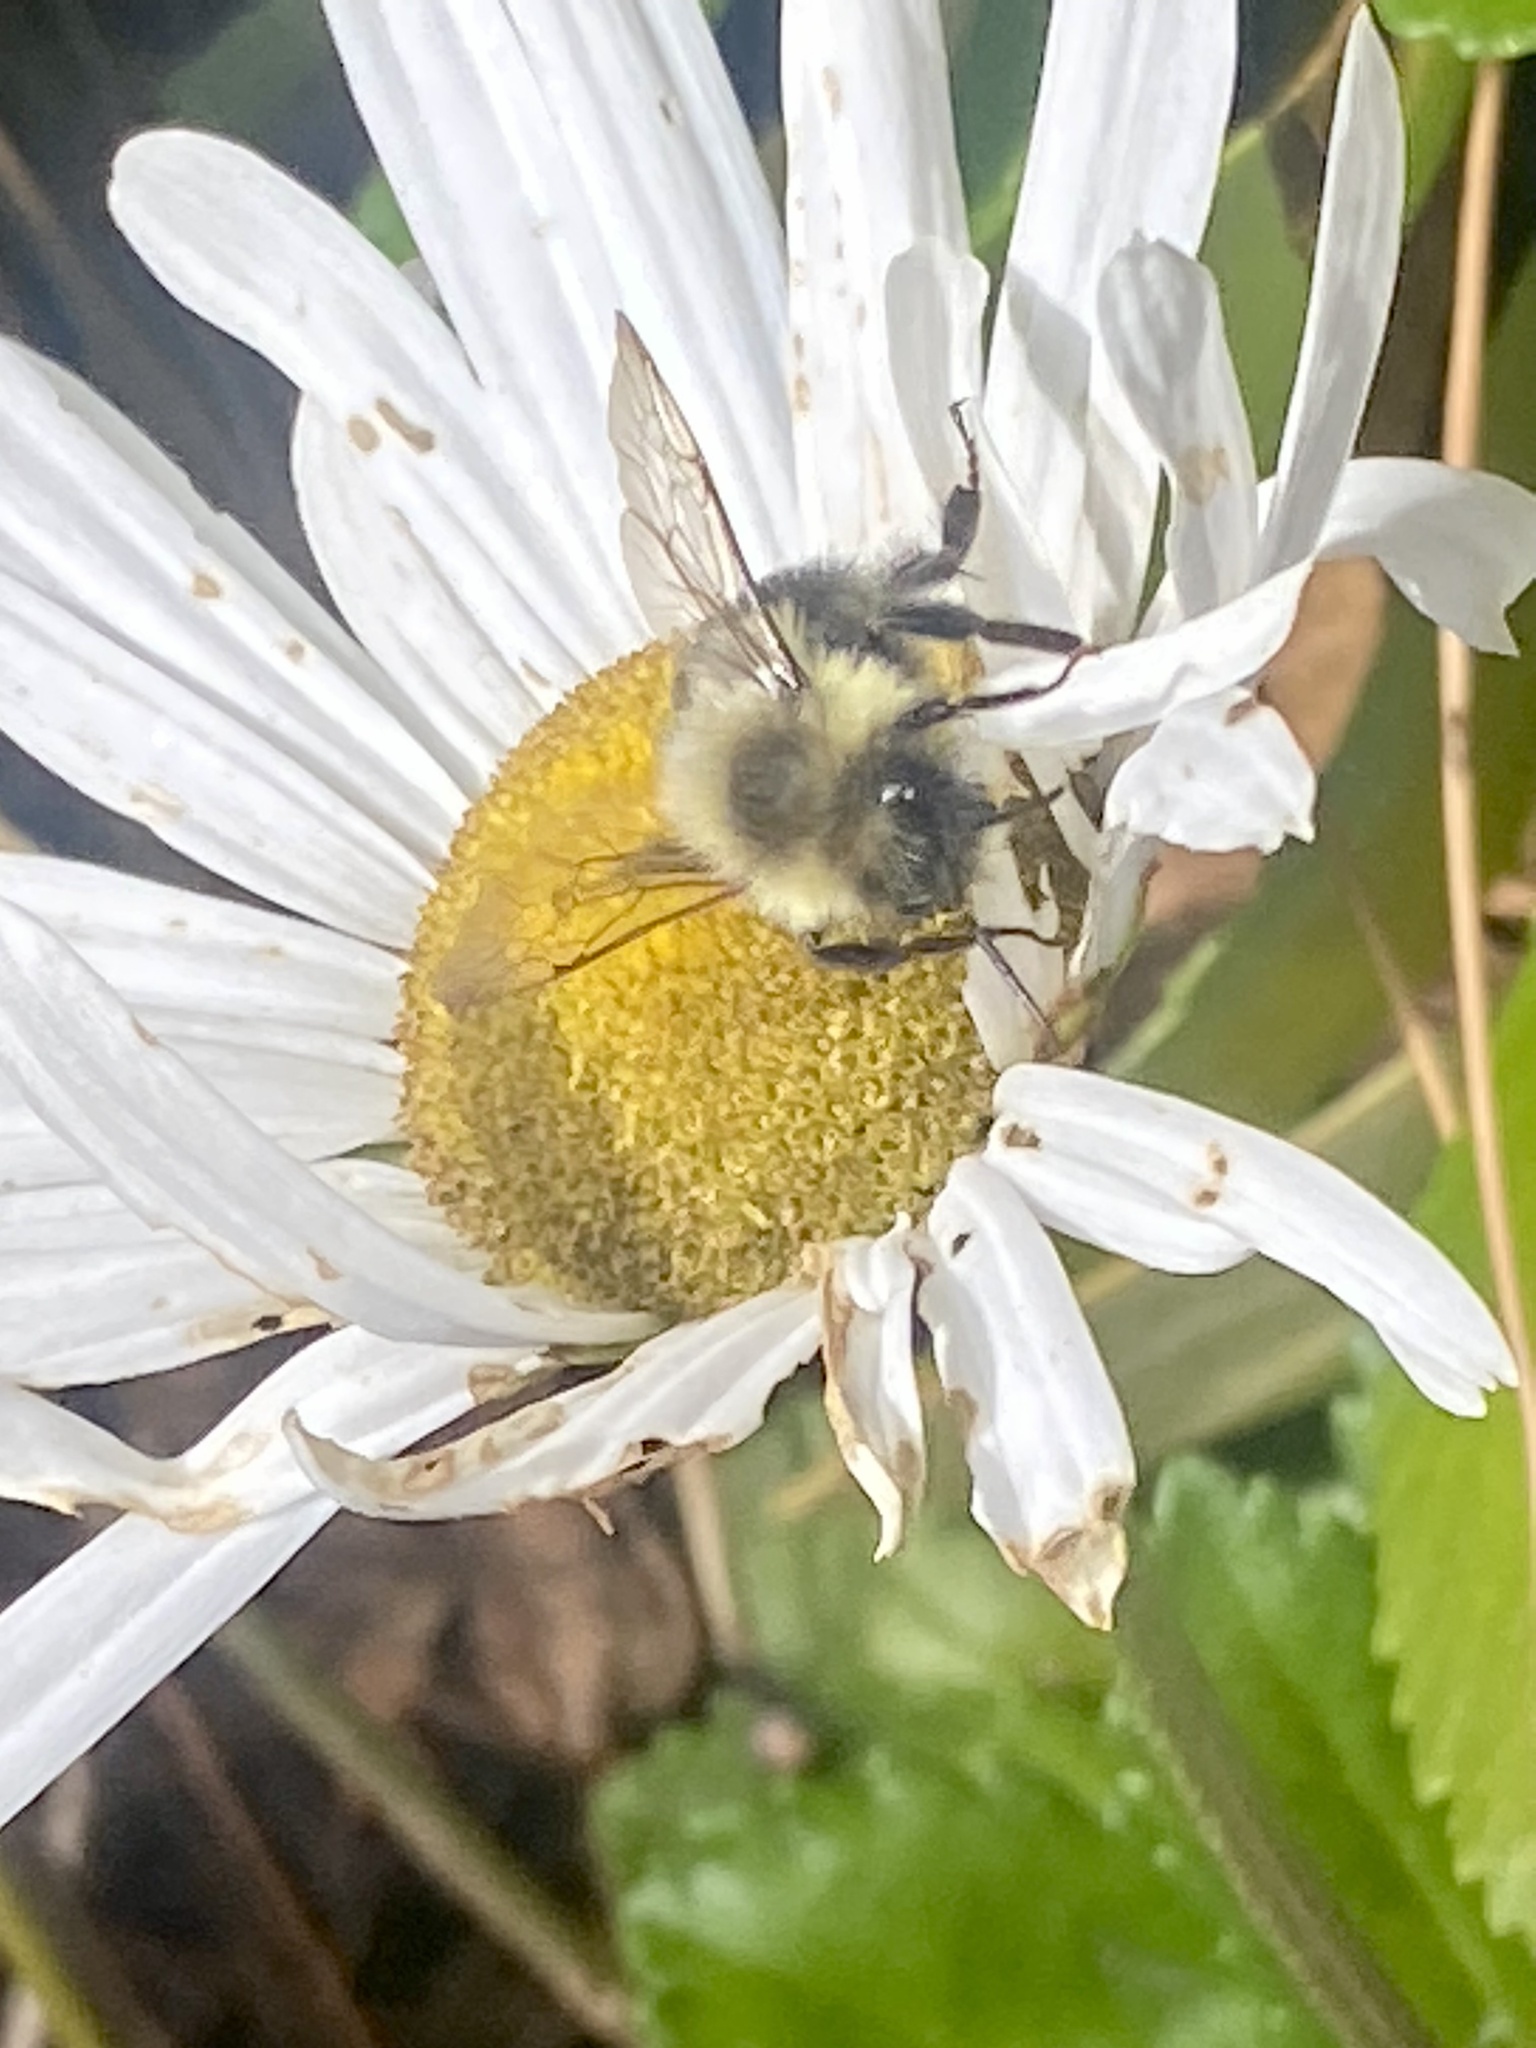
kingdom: Animalia
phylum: Arthropoda
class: Insecta
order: Hymenoptera
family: Apidae
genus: Bombus
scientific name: Bombus impatiens
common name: Common eastern bumble bee
